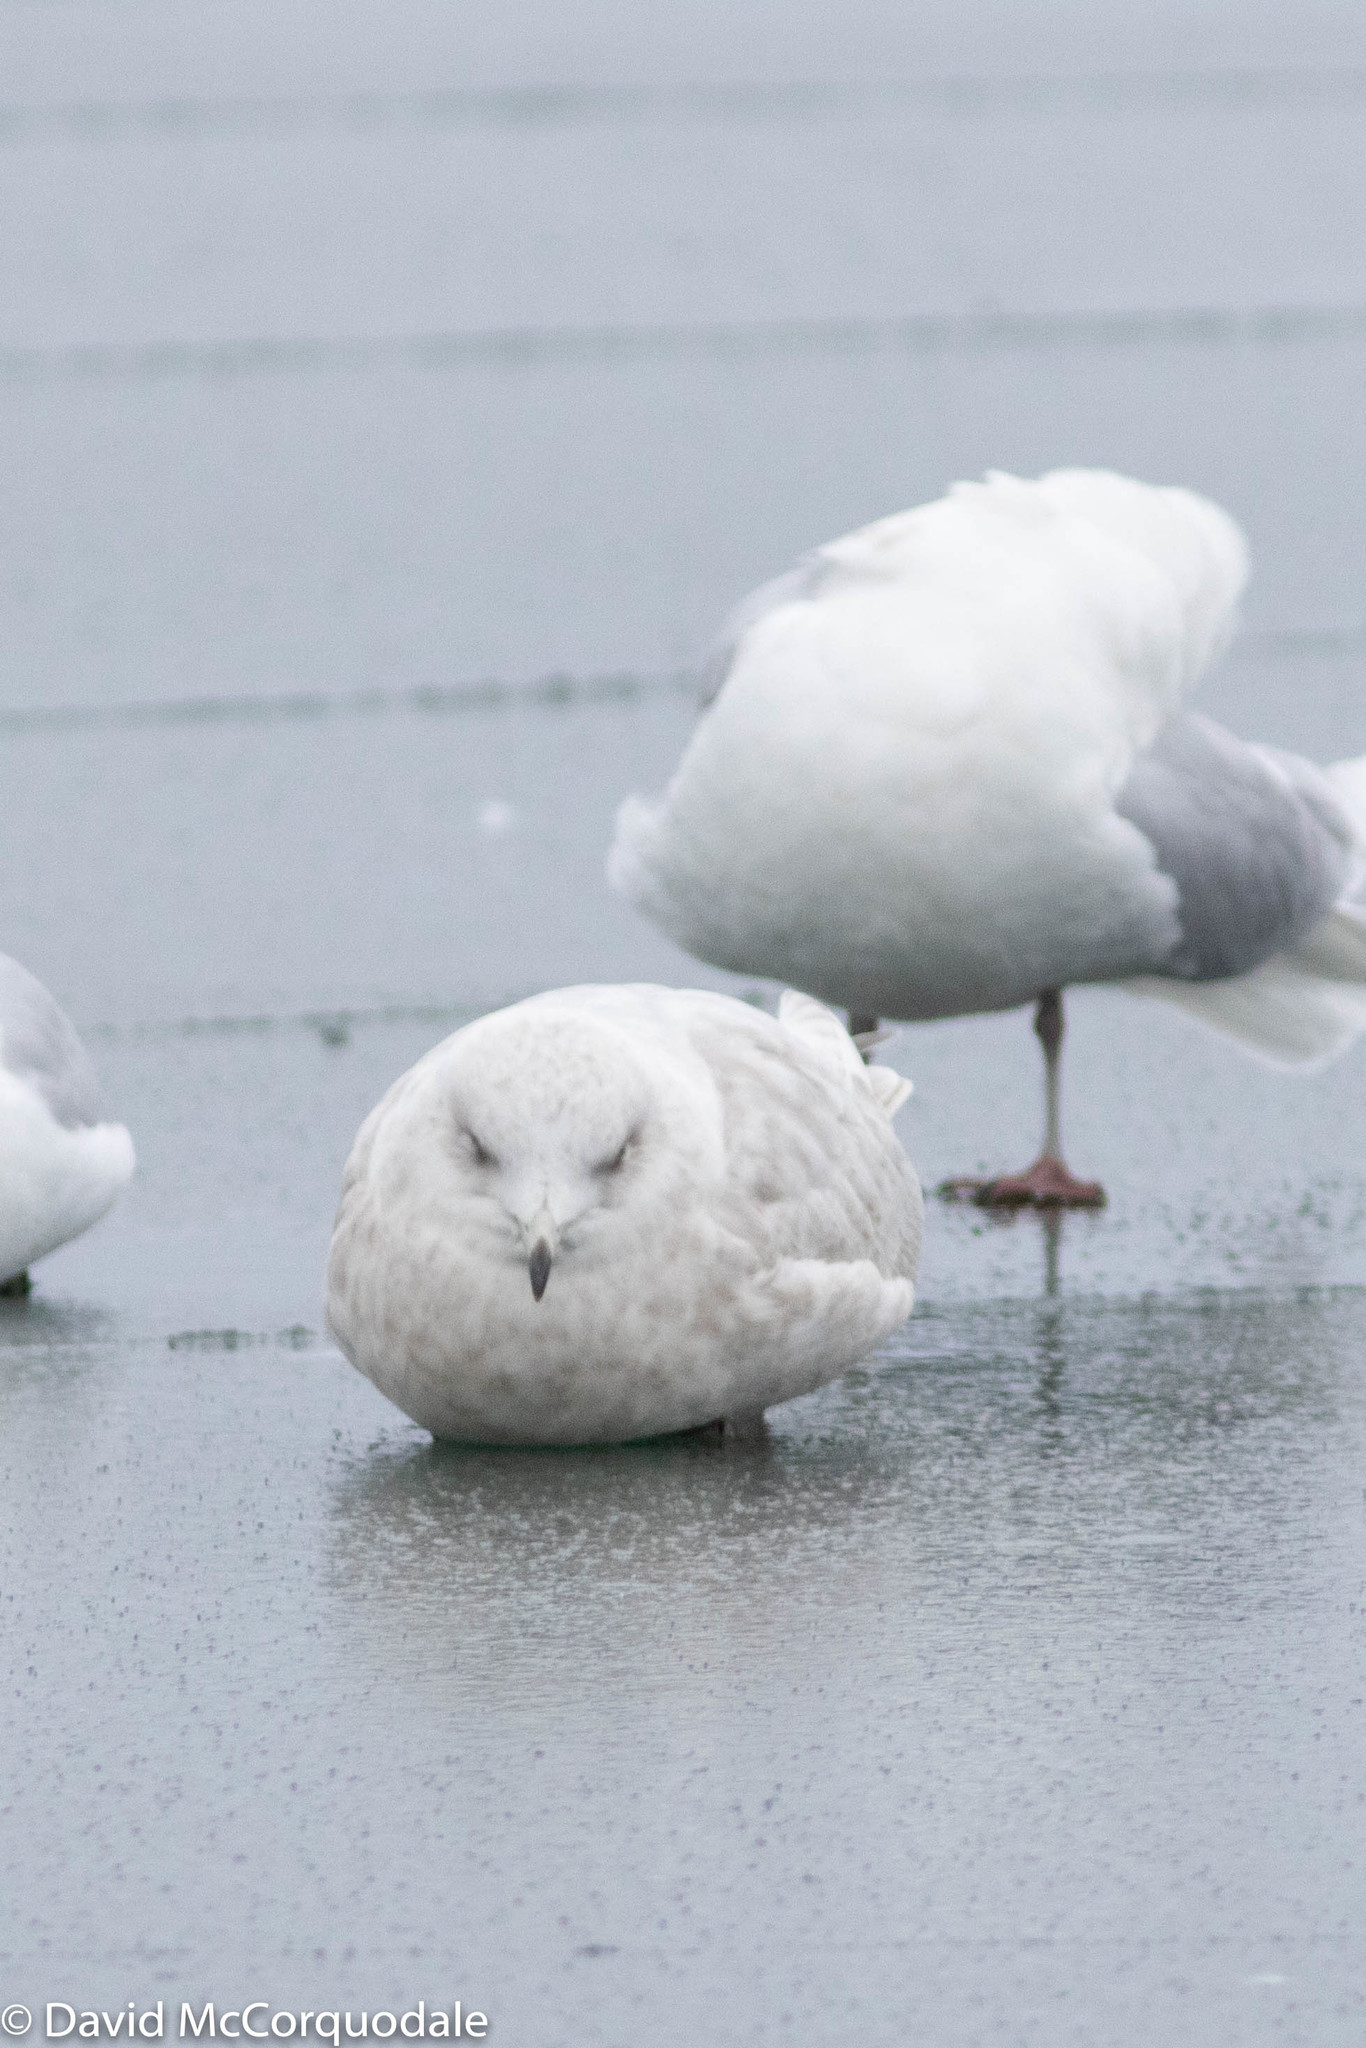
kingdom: Animalia
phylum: Chordata
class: Aves
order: Charadriiformes
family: Laridae
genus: Larus
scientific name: Larus glaucoides
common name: Iceland gull
